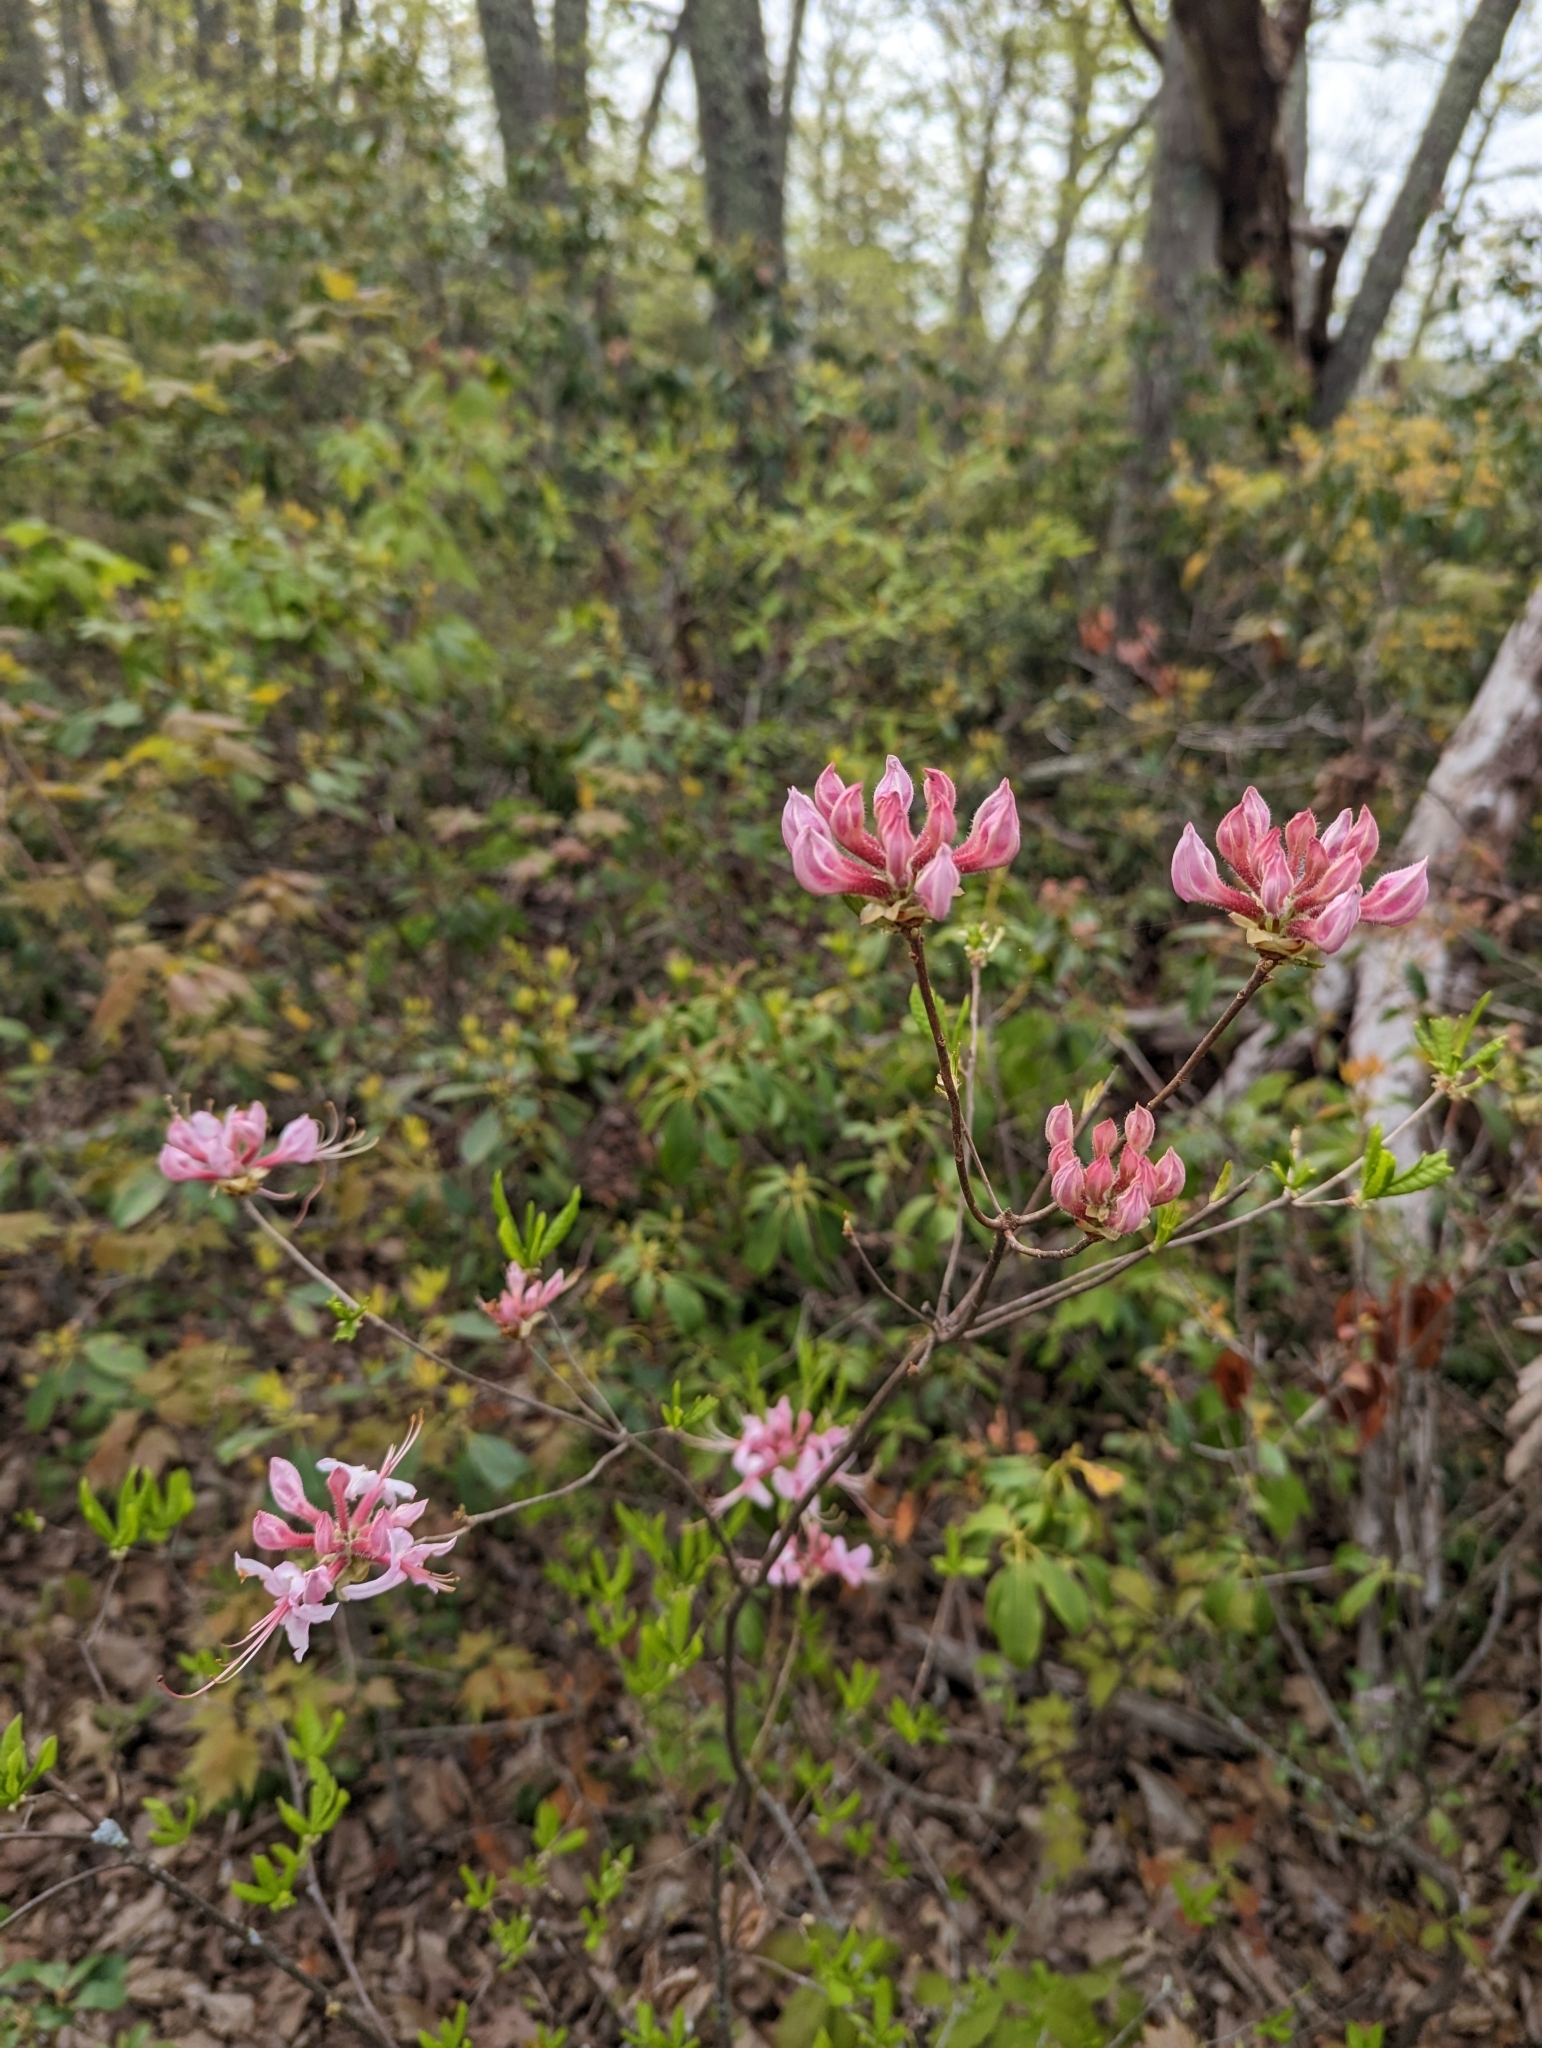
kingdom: Plantae
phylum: Tracheophyta
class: Magnoliopsida
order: Ericales
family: Ericaceae
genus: Rhododendron
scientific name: Rhododendron periclymenoides
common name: Election-pink
